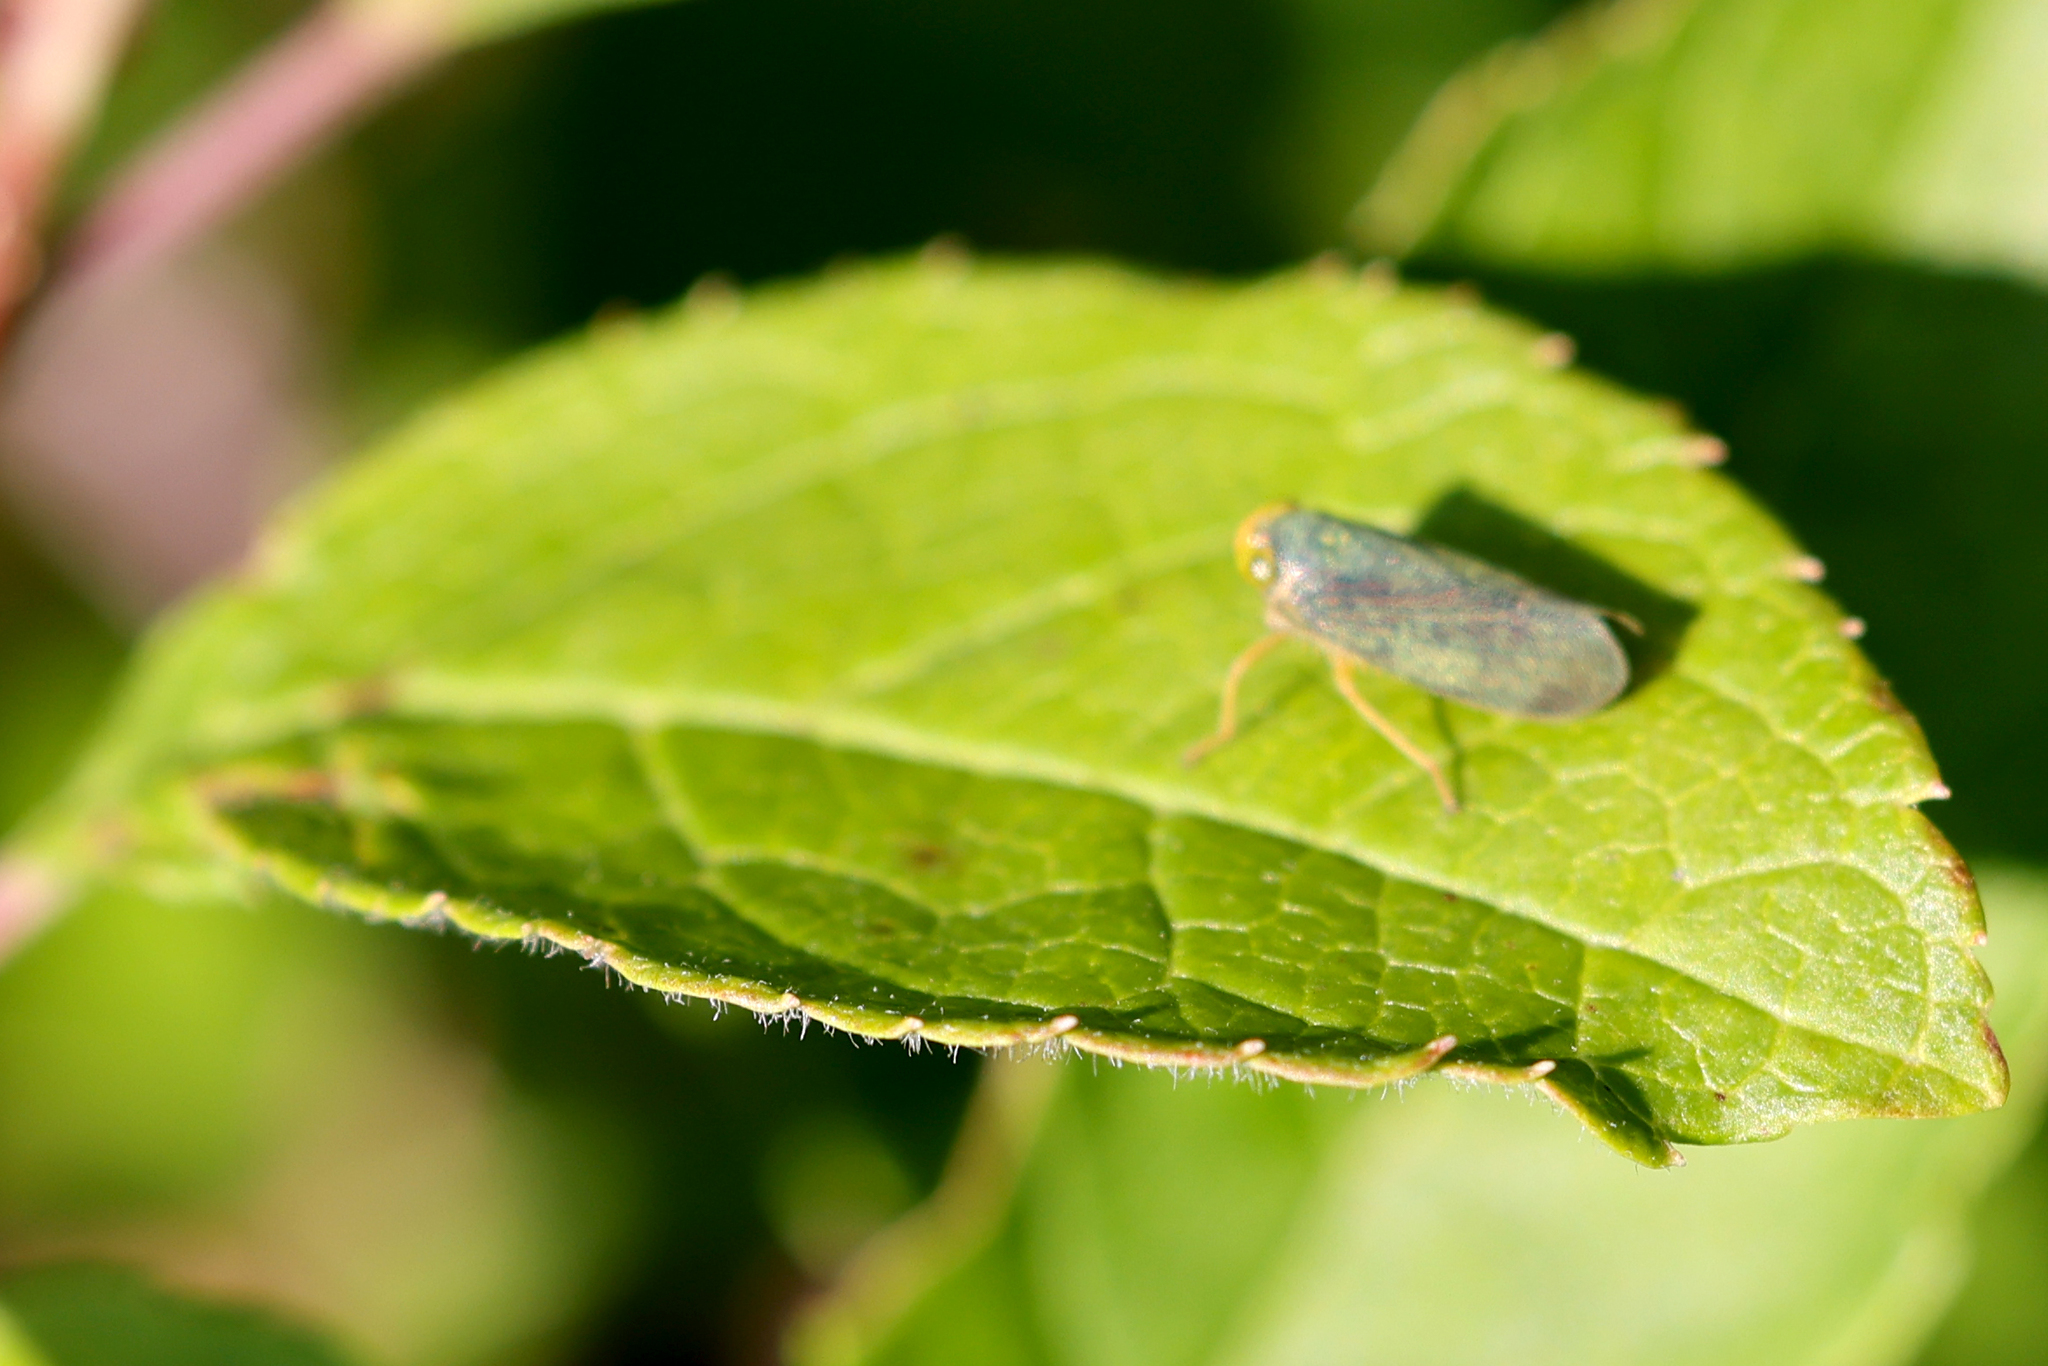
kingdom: Animalia
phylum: Arthropoda
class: Insecta
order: Hemiptera
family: Cicadellidae
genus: Jikradia
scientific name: Jikradia olitoria
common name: Coppery leafhopper
